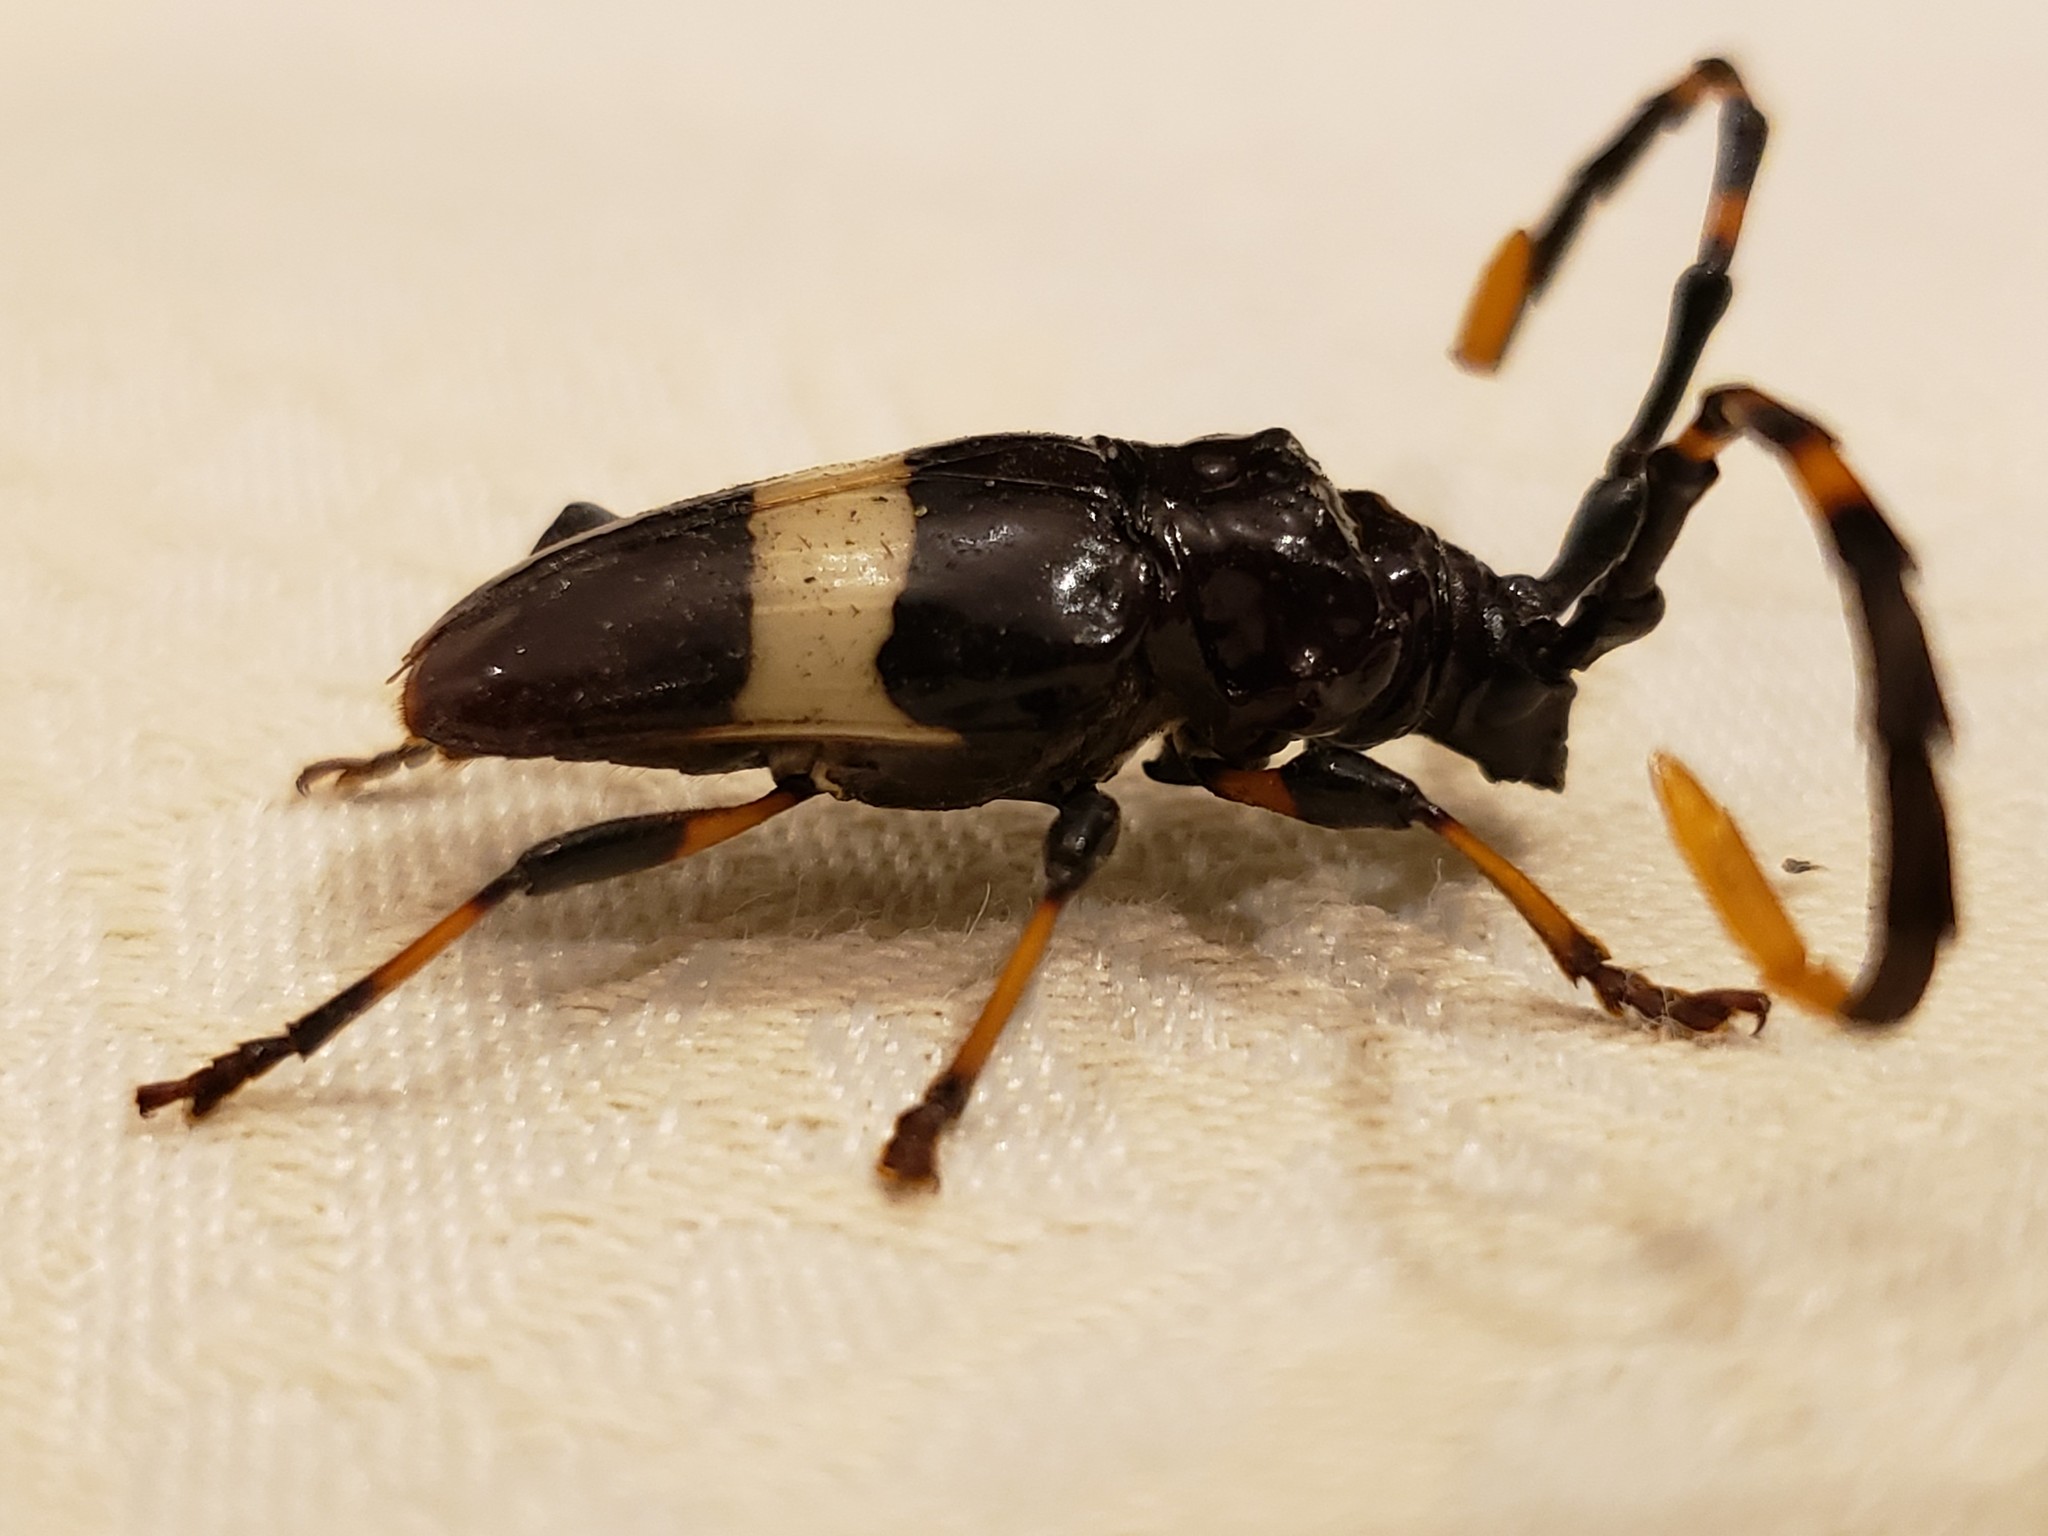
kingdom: Animalia
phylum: Arthropoda
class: Insecta
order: Coleoptera
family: Cerambycidae
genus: Trachyderes
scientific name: Trachyderes succinctus
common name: Mango longhorn
